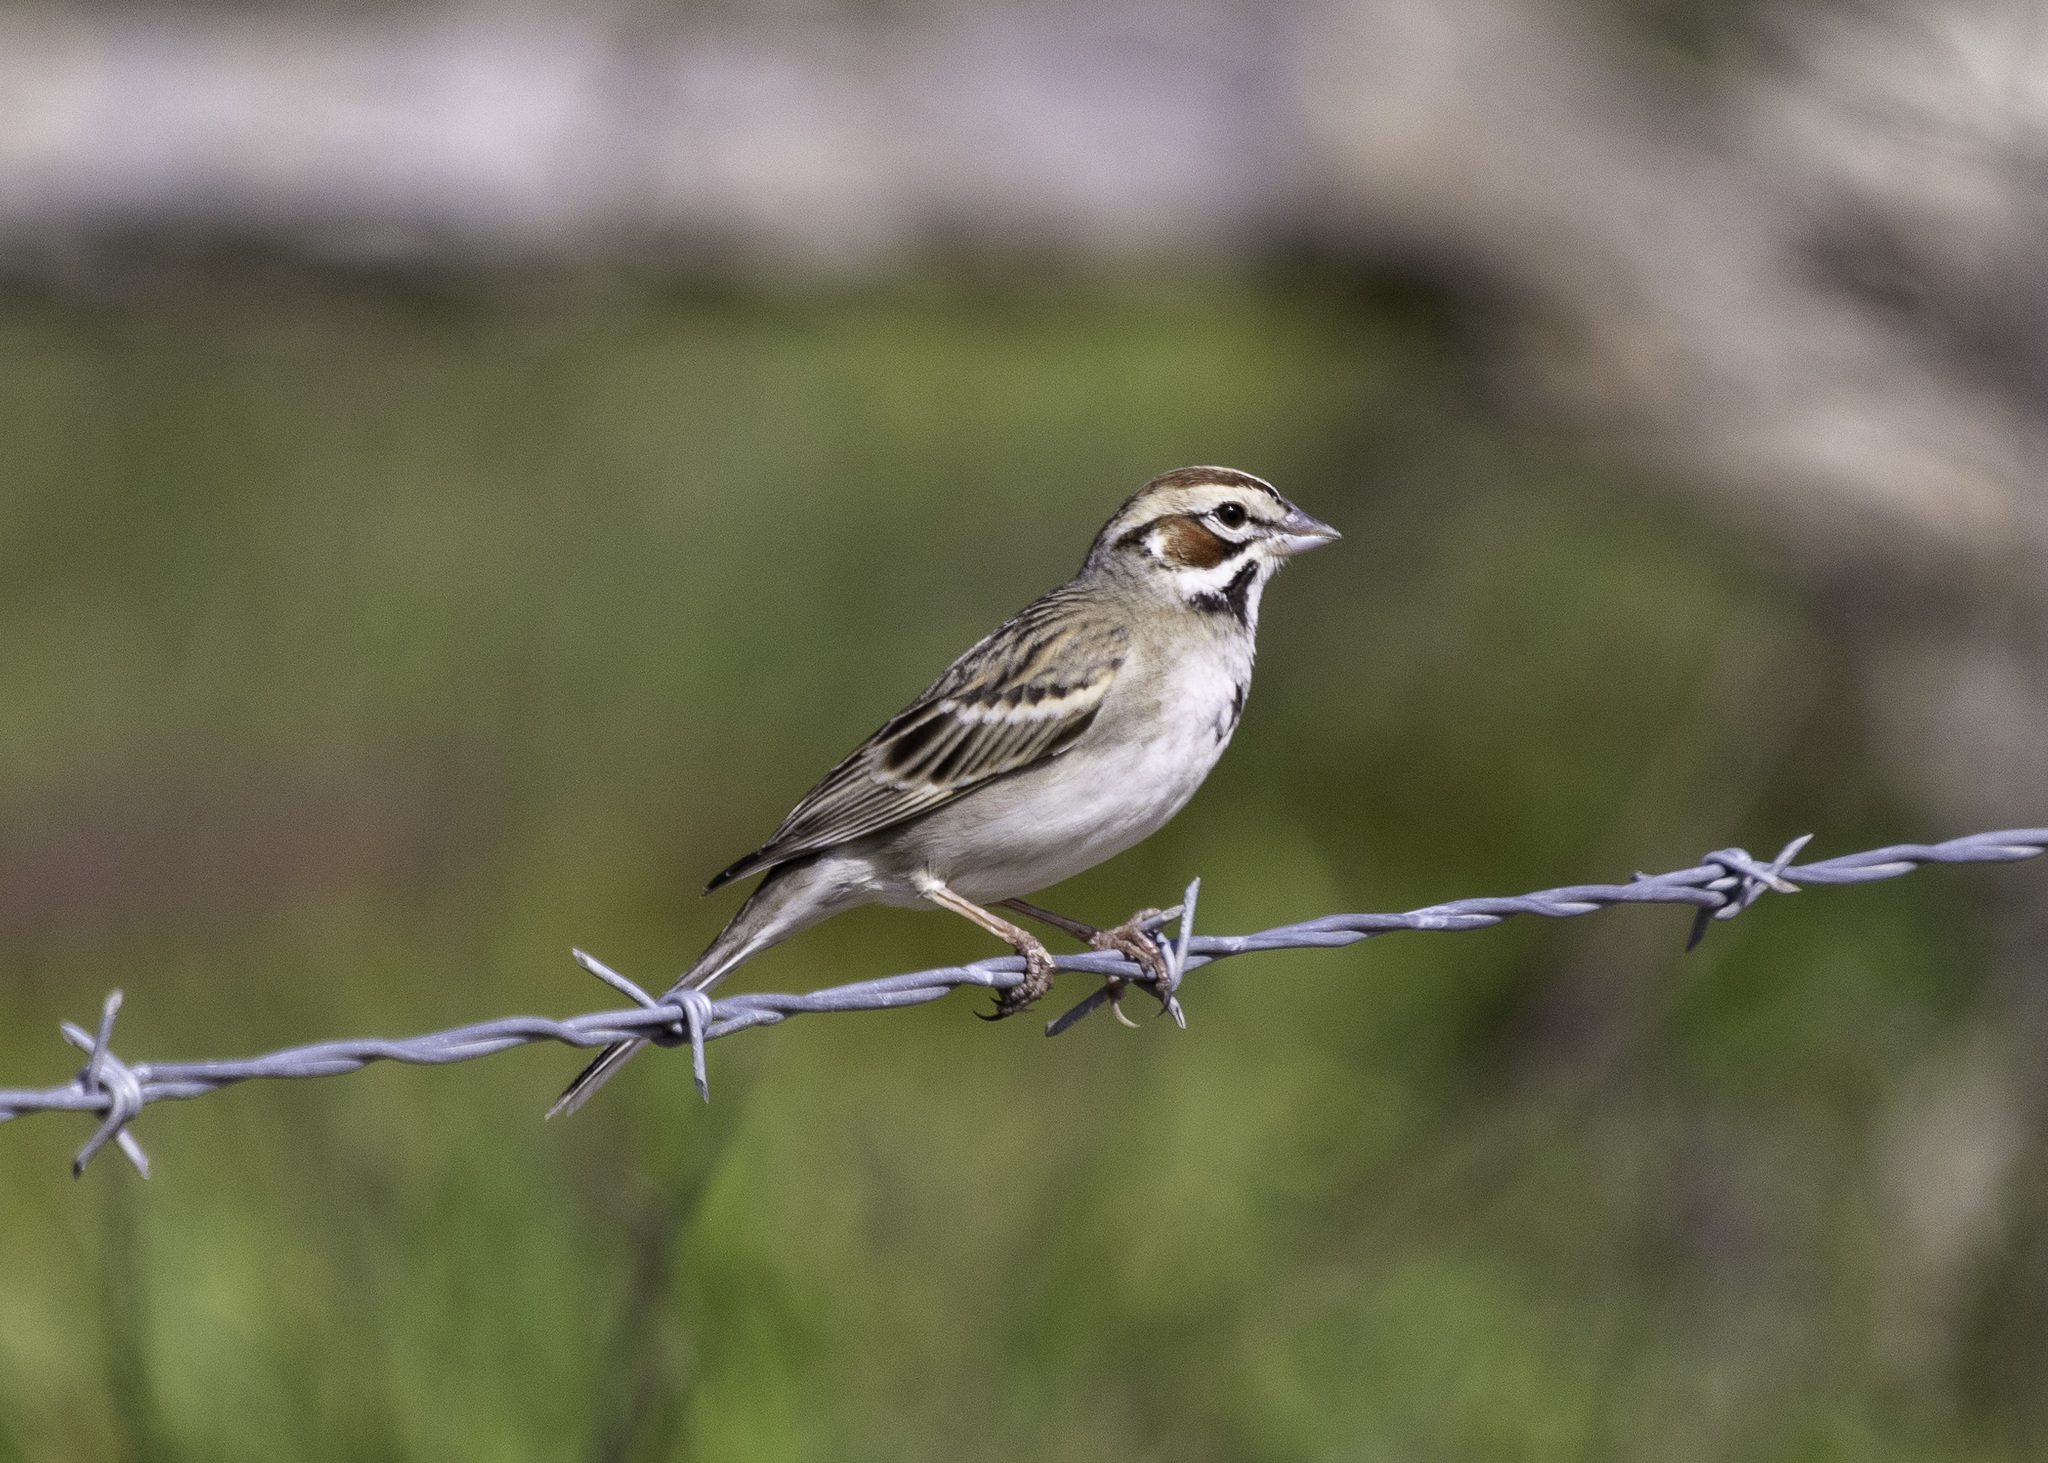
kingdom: Animalia
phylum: Chordata
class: Aves
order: Passeriformes
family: Passerellidae
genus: Chondestes
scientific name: Chondestes grammacus
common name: Lark sparrow
